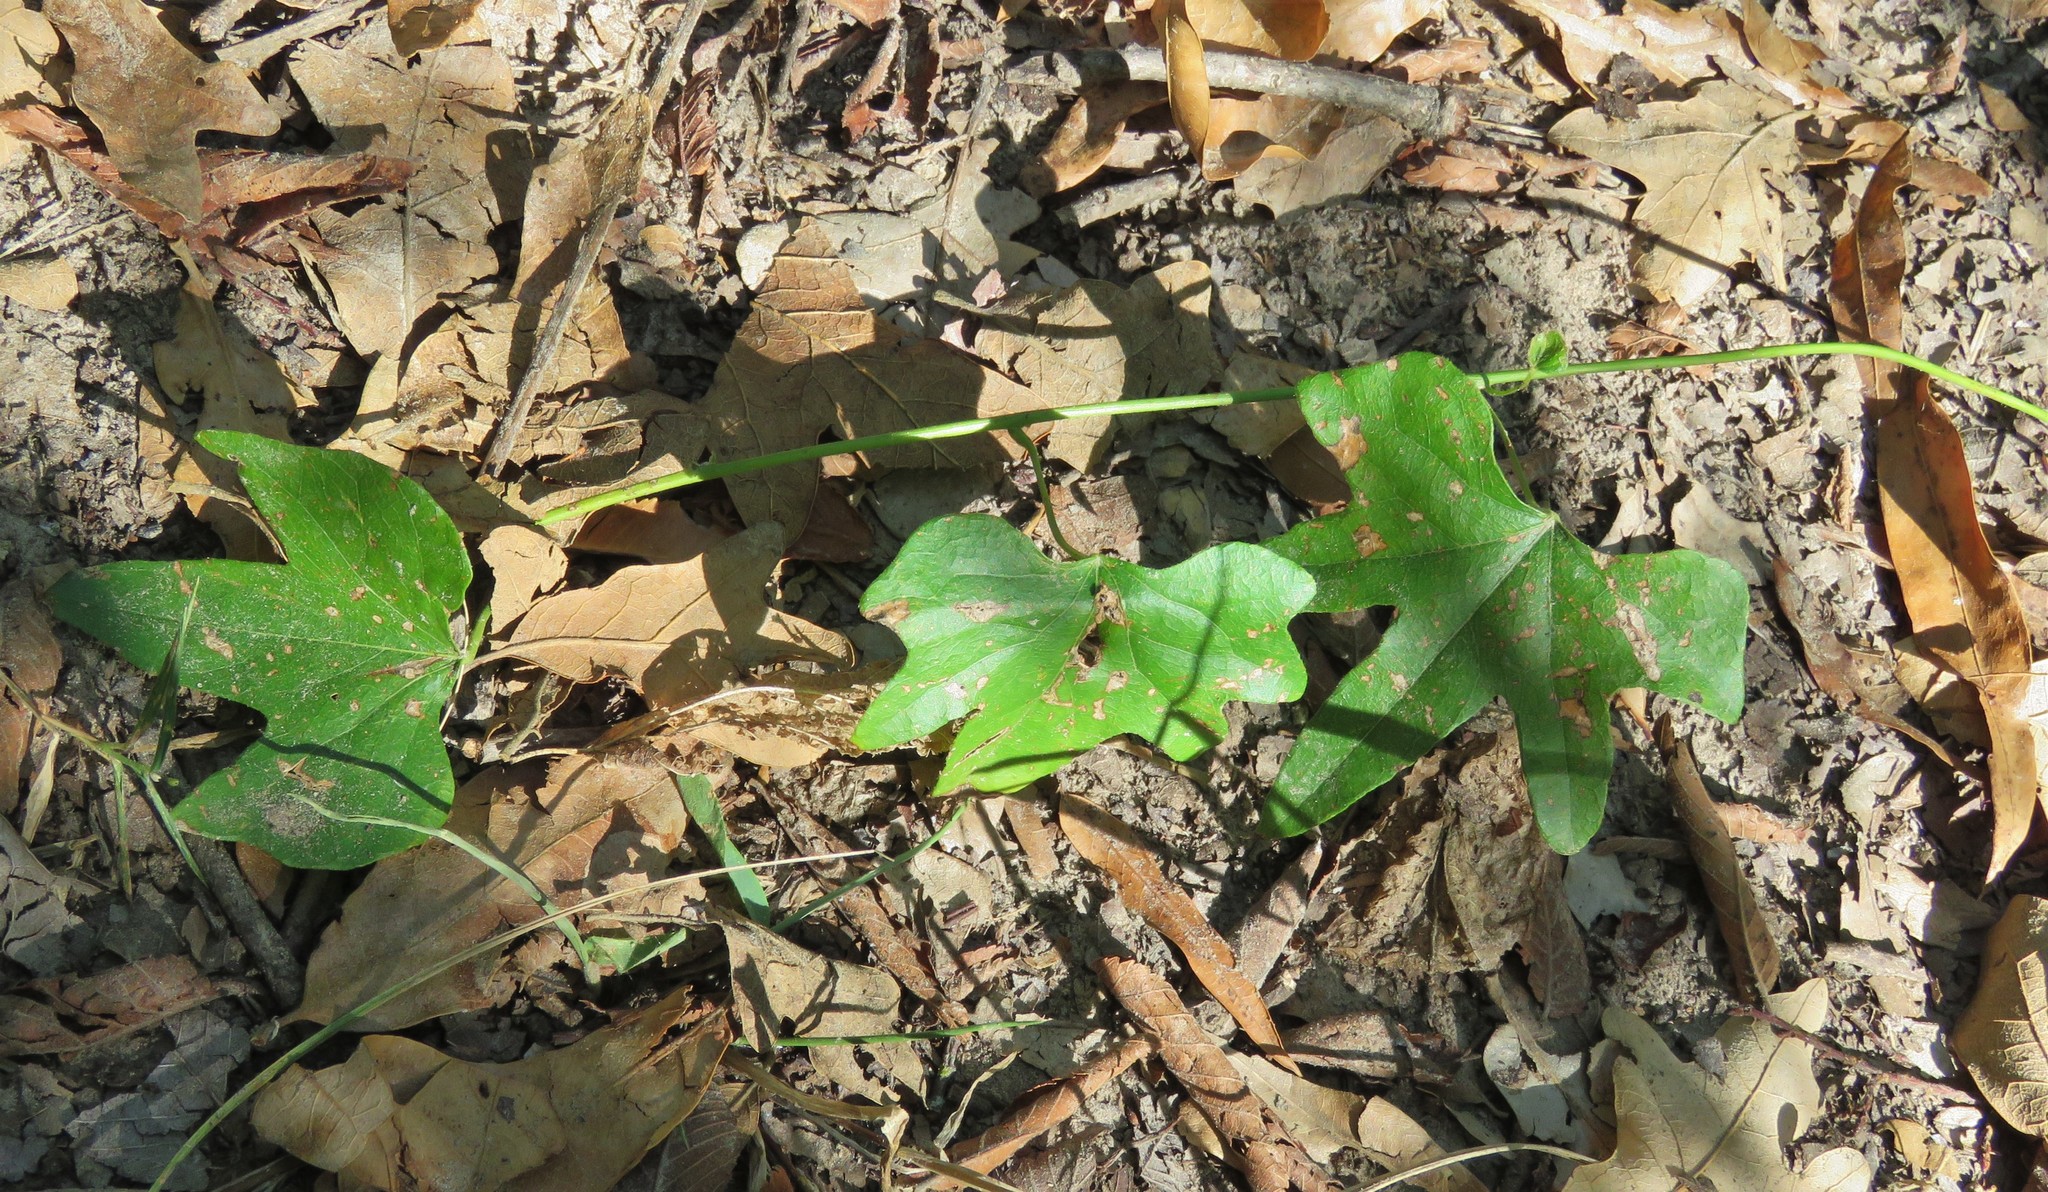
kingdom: Plantae
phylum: Tracheophyta
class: Magnoliopsida
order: Ranunculales
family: Menispermaceae
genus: Cocculus
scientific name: Cocculus carolinus
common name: Carolina moonseed
